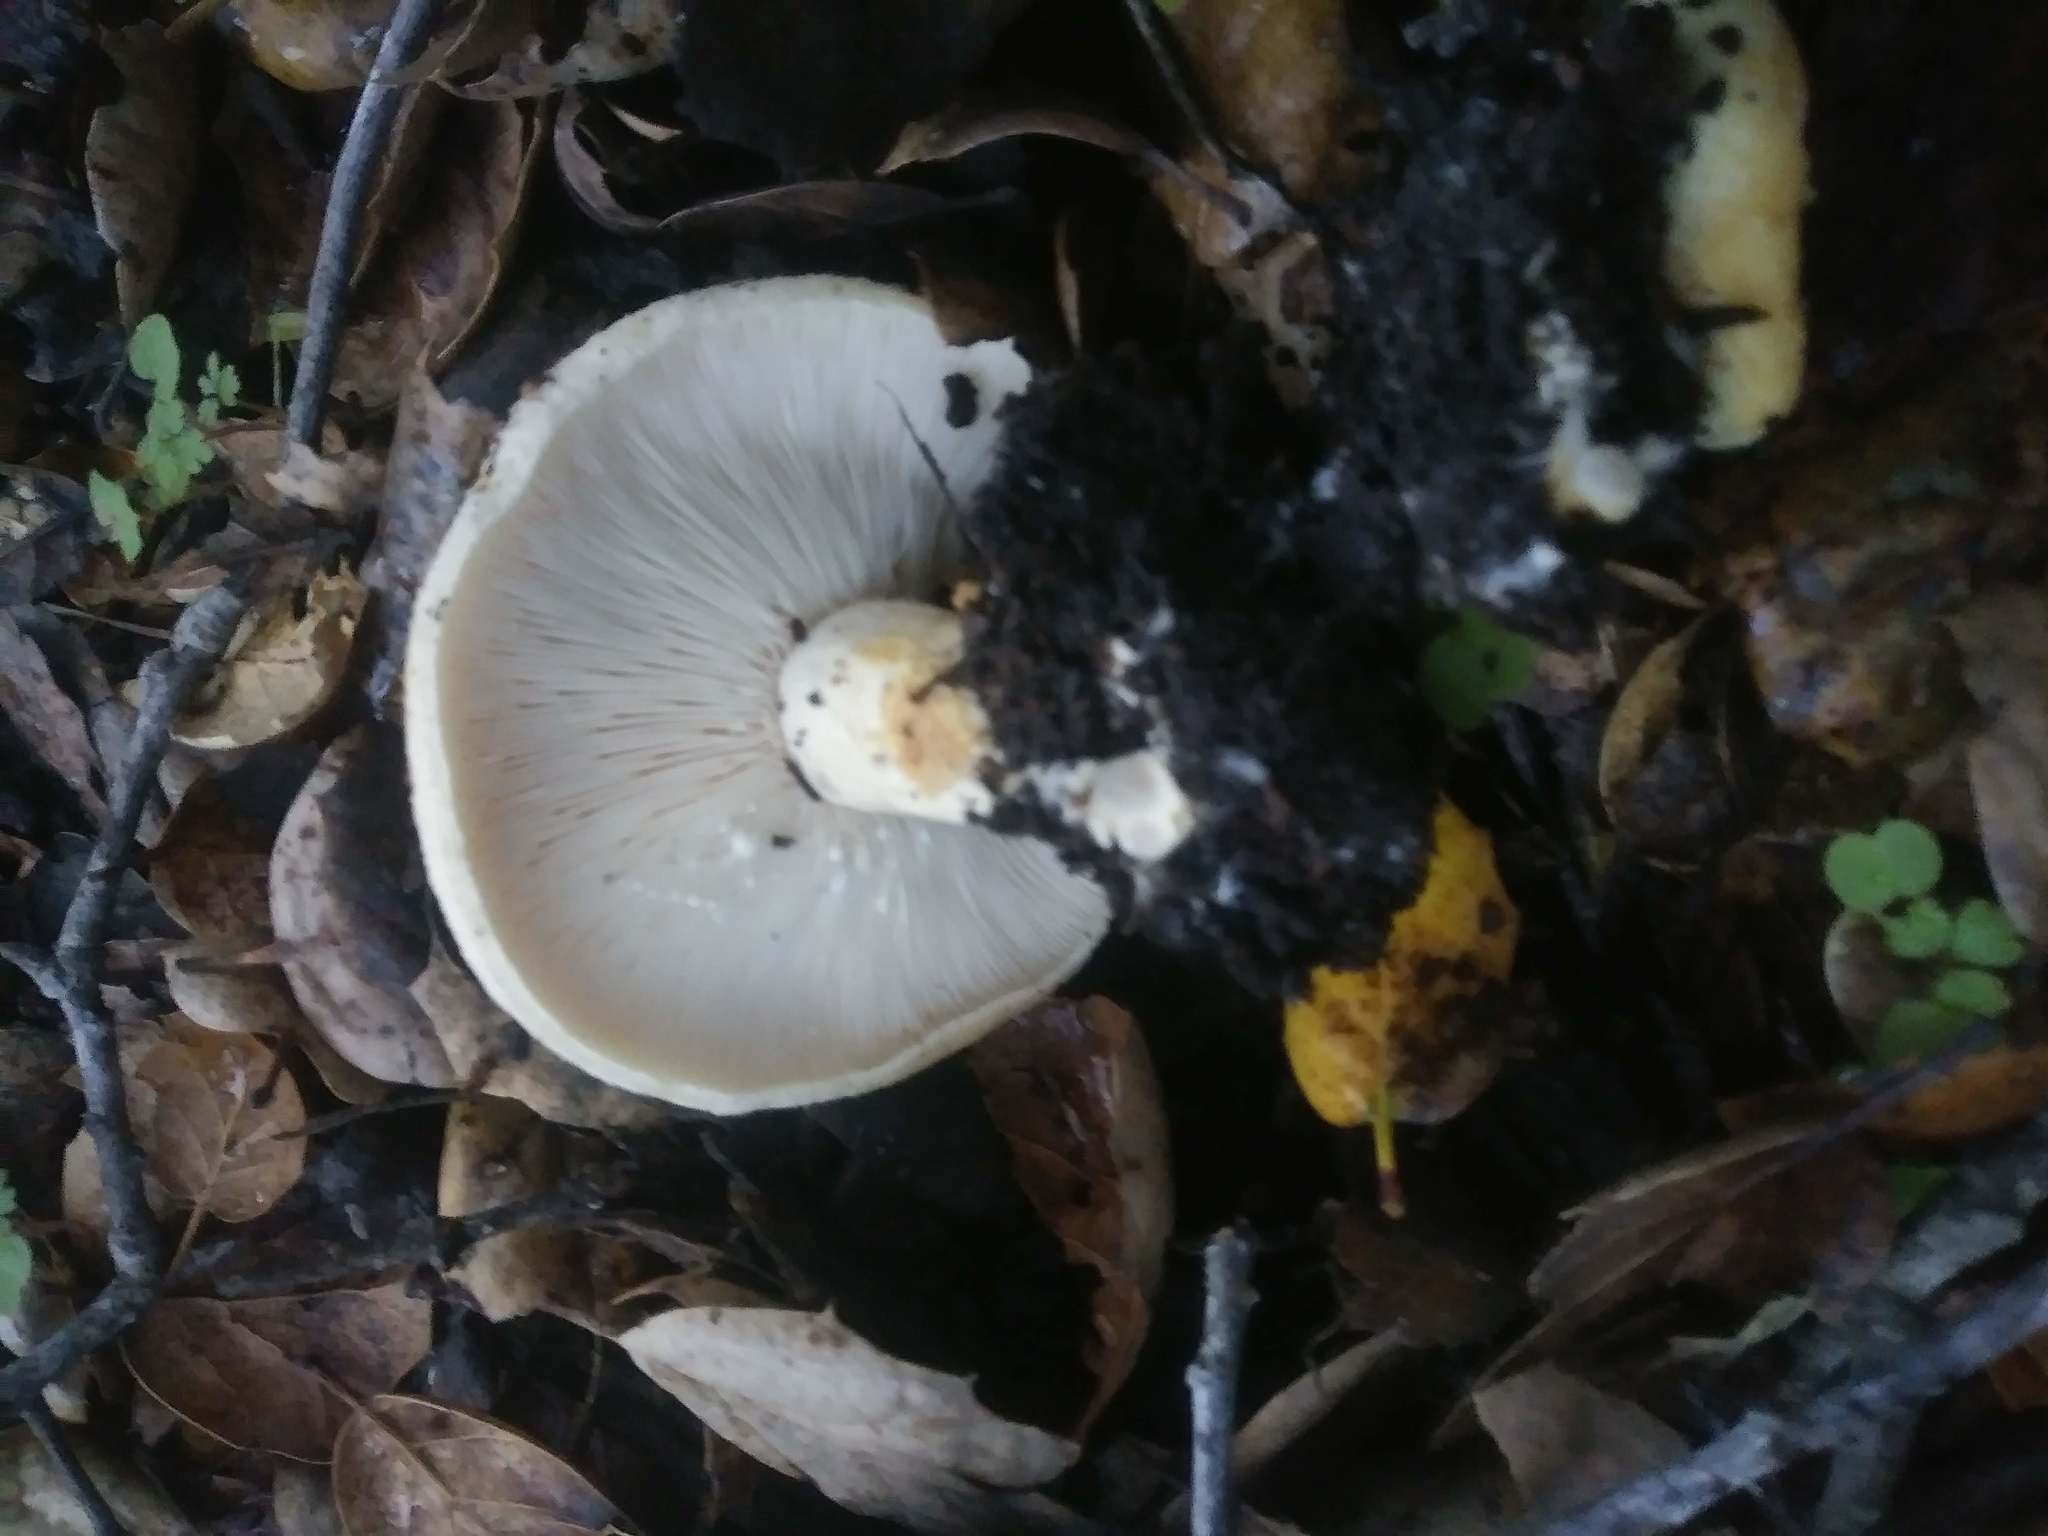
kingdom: Fungi
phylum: Basidiomycota
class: Agaricomycetes
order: Russulales
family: Russulaceae
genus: Lactarius
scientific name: Lactarius alnicola
